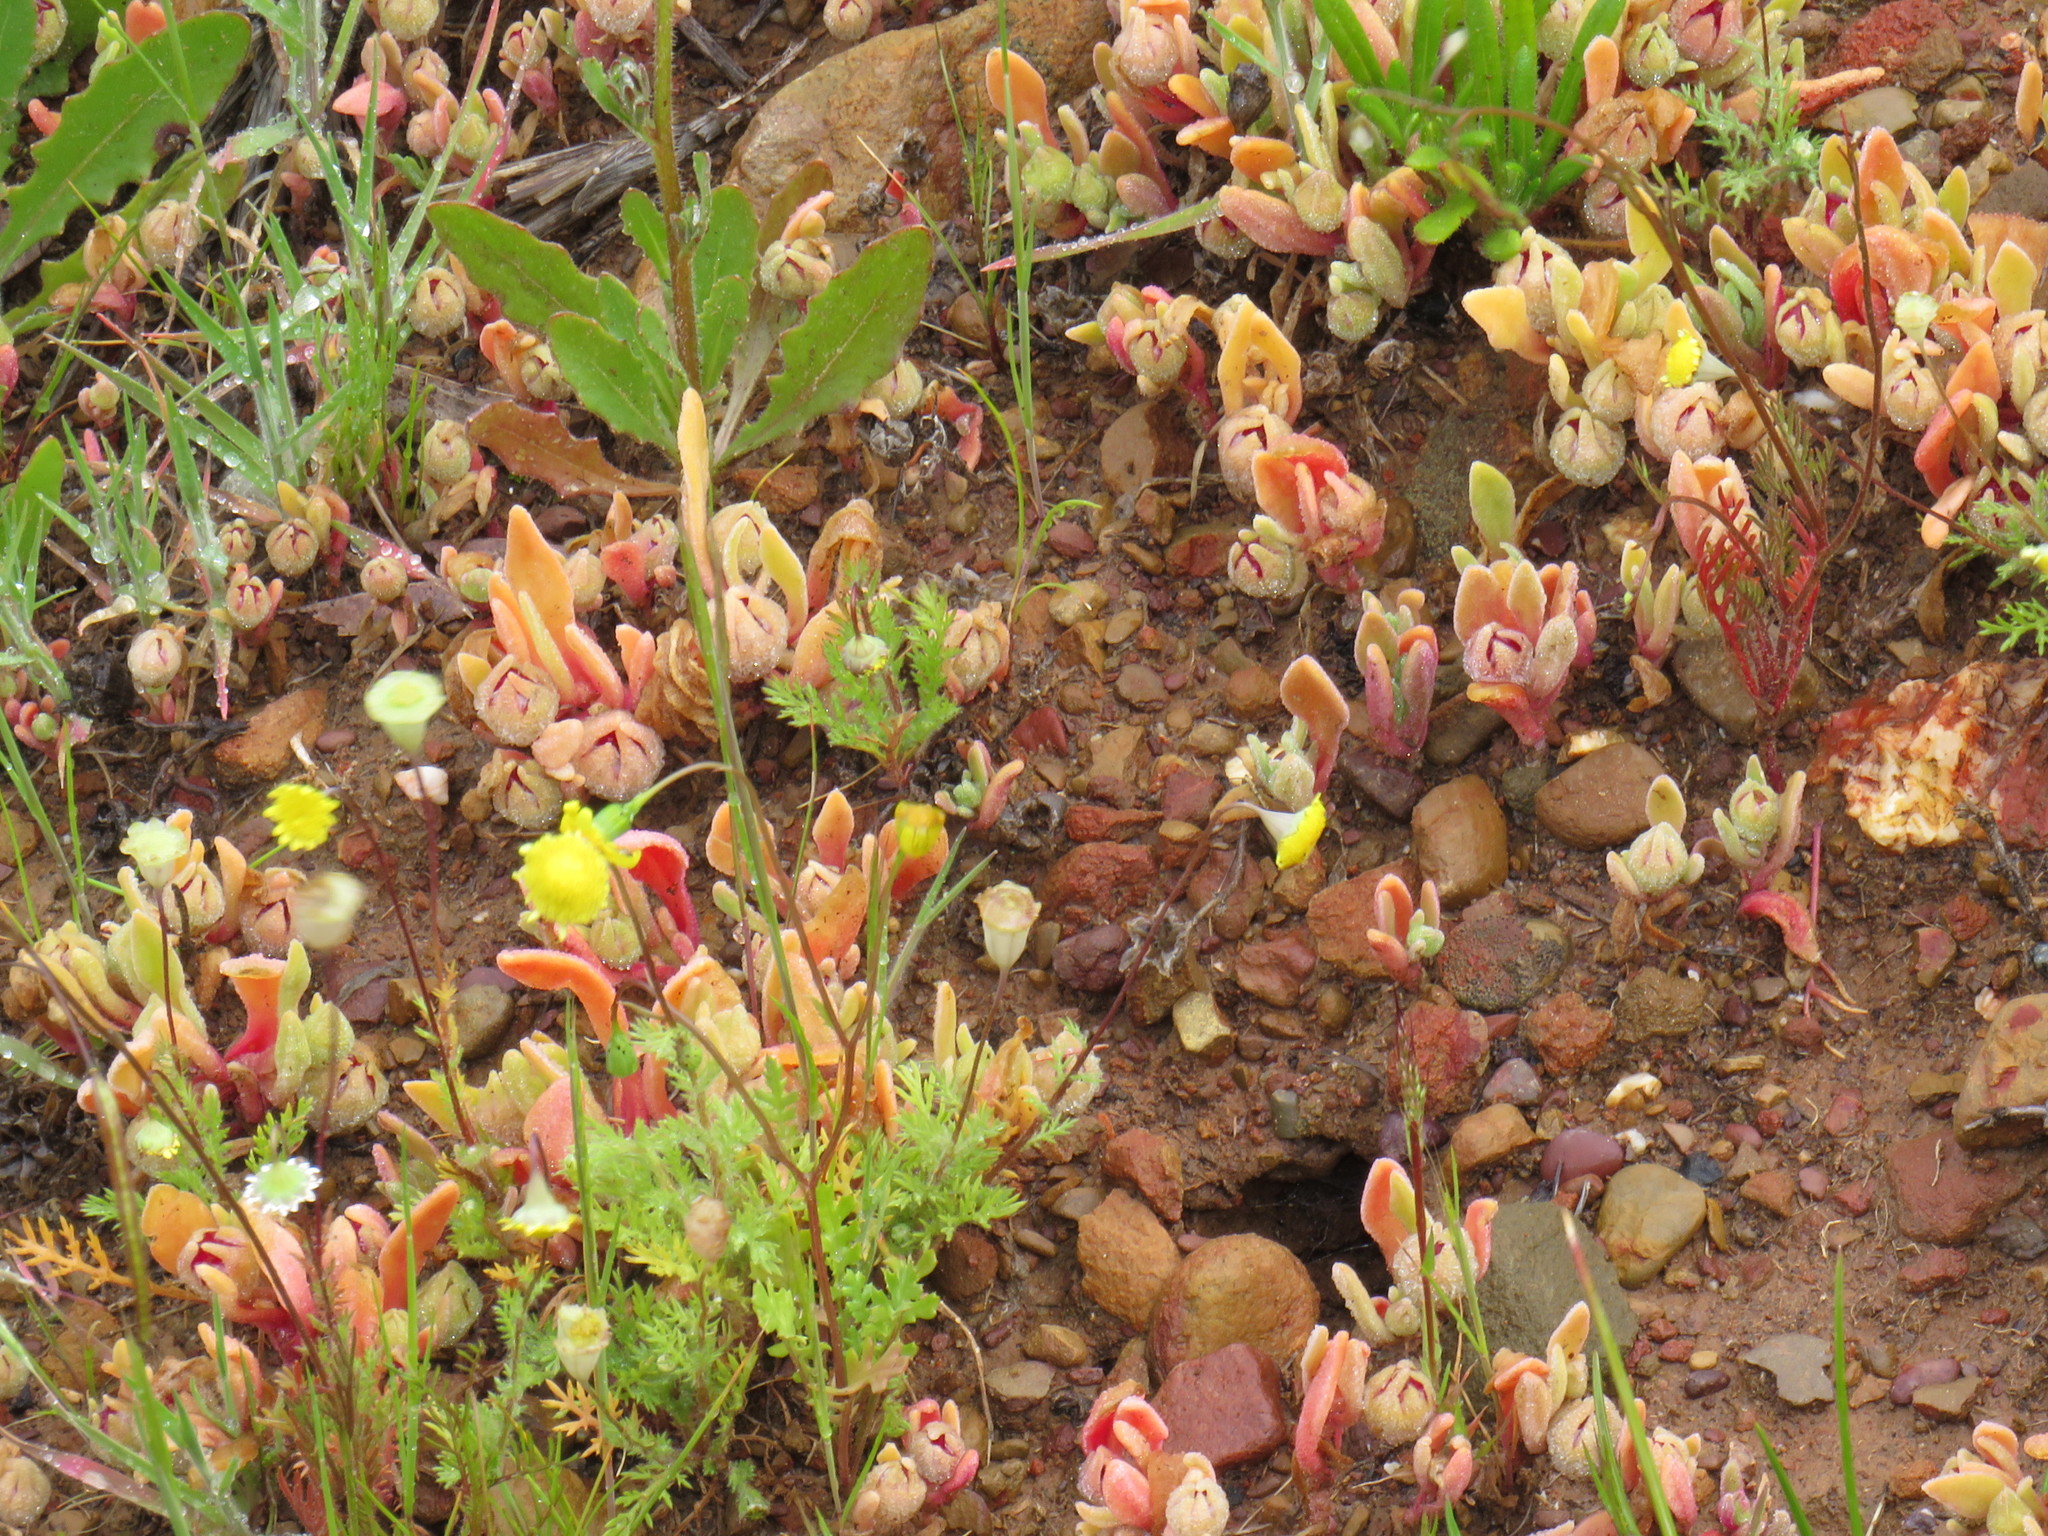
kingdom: Plantae
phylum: Tracheophyta
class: Magnoliopsida
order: Caryophyllales
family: Aizoaceae
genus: Cleretum
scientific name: Cleretum bellidiforme
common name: Livingstone daisy
